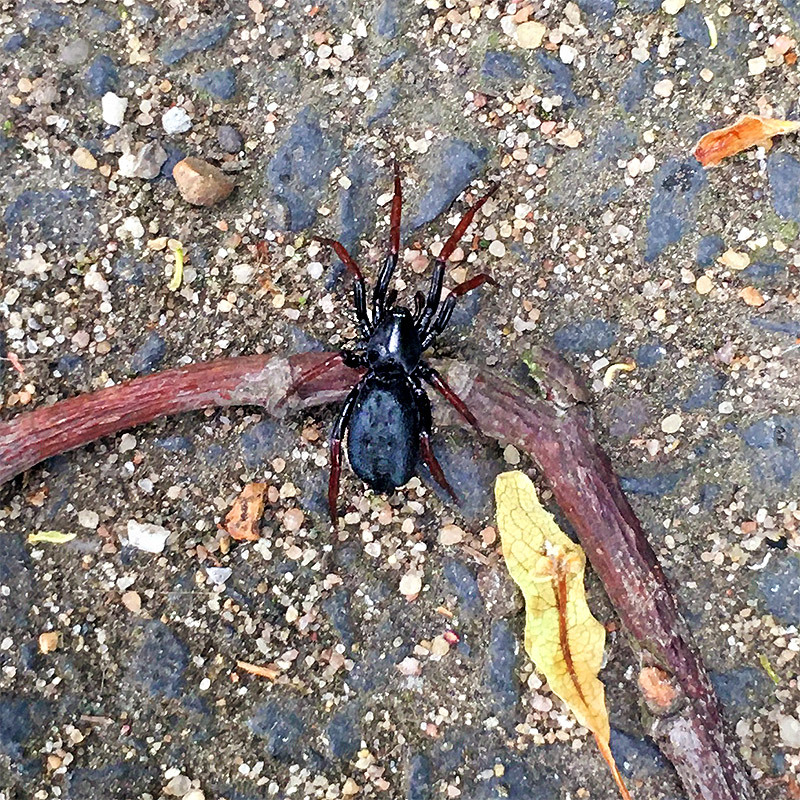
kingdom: Animalia
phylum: Arthropoda
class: Arachnida
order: Araneae
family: Gnaphosidae
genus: Trachyzelotes
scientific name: Trachyzelotes pedestris
